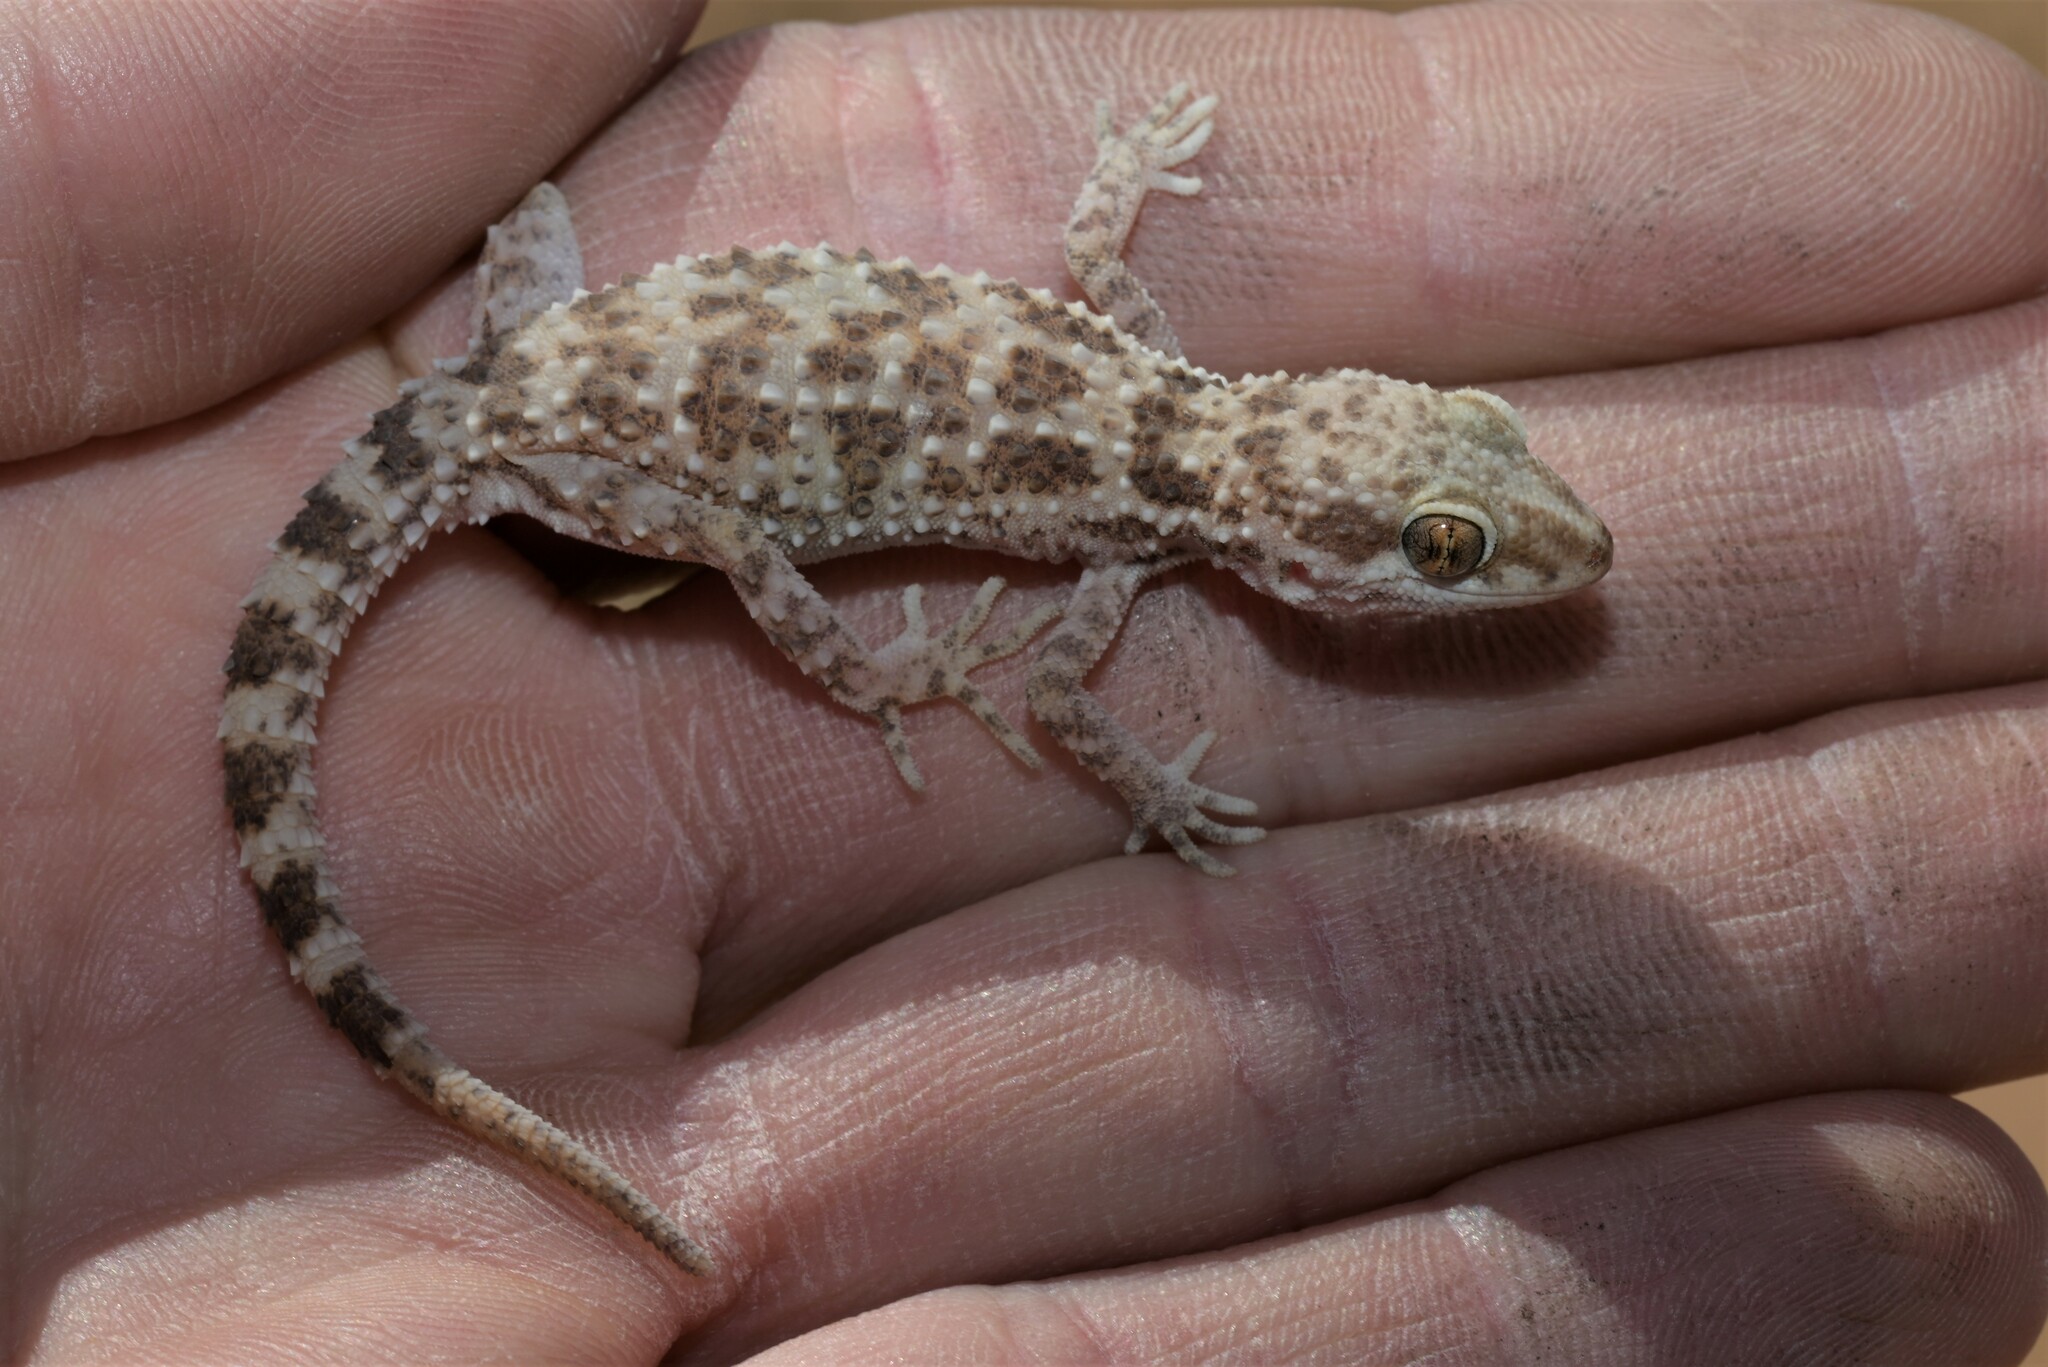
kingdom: Animalia
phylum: Chordata
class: Squamata
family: Gekkonidae
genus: Bunopus
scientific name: Bunopus tuberculatus
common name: Southern tuberculated gecko
